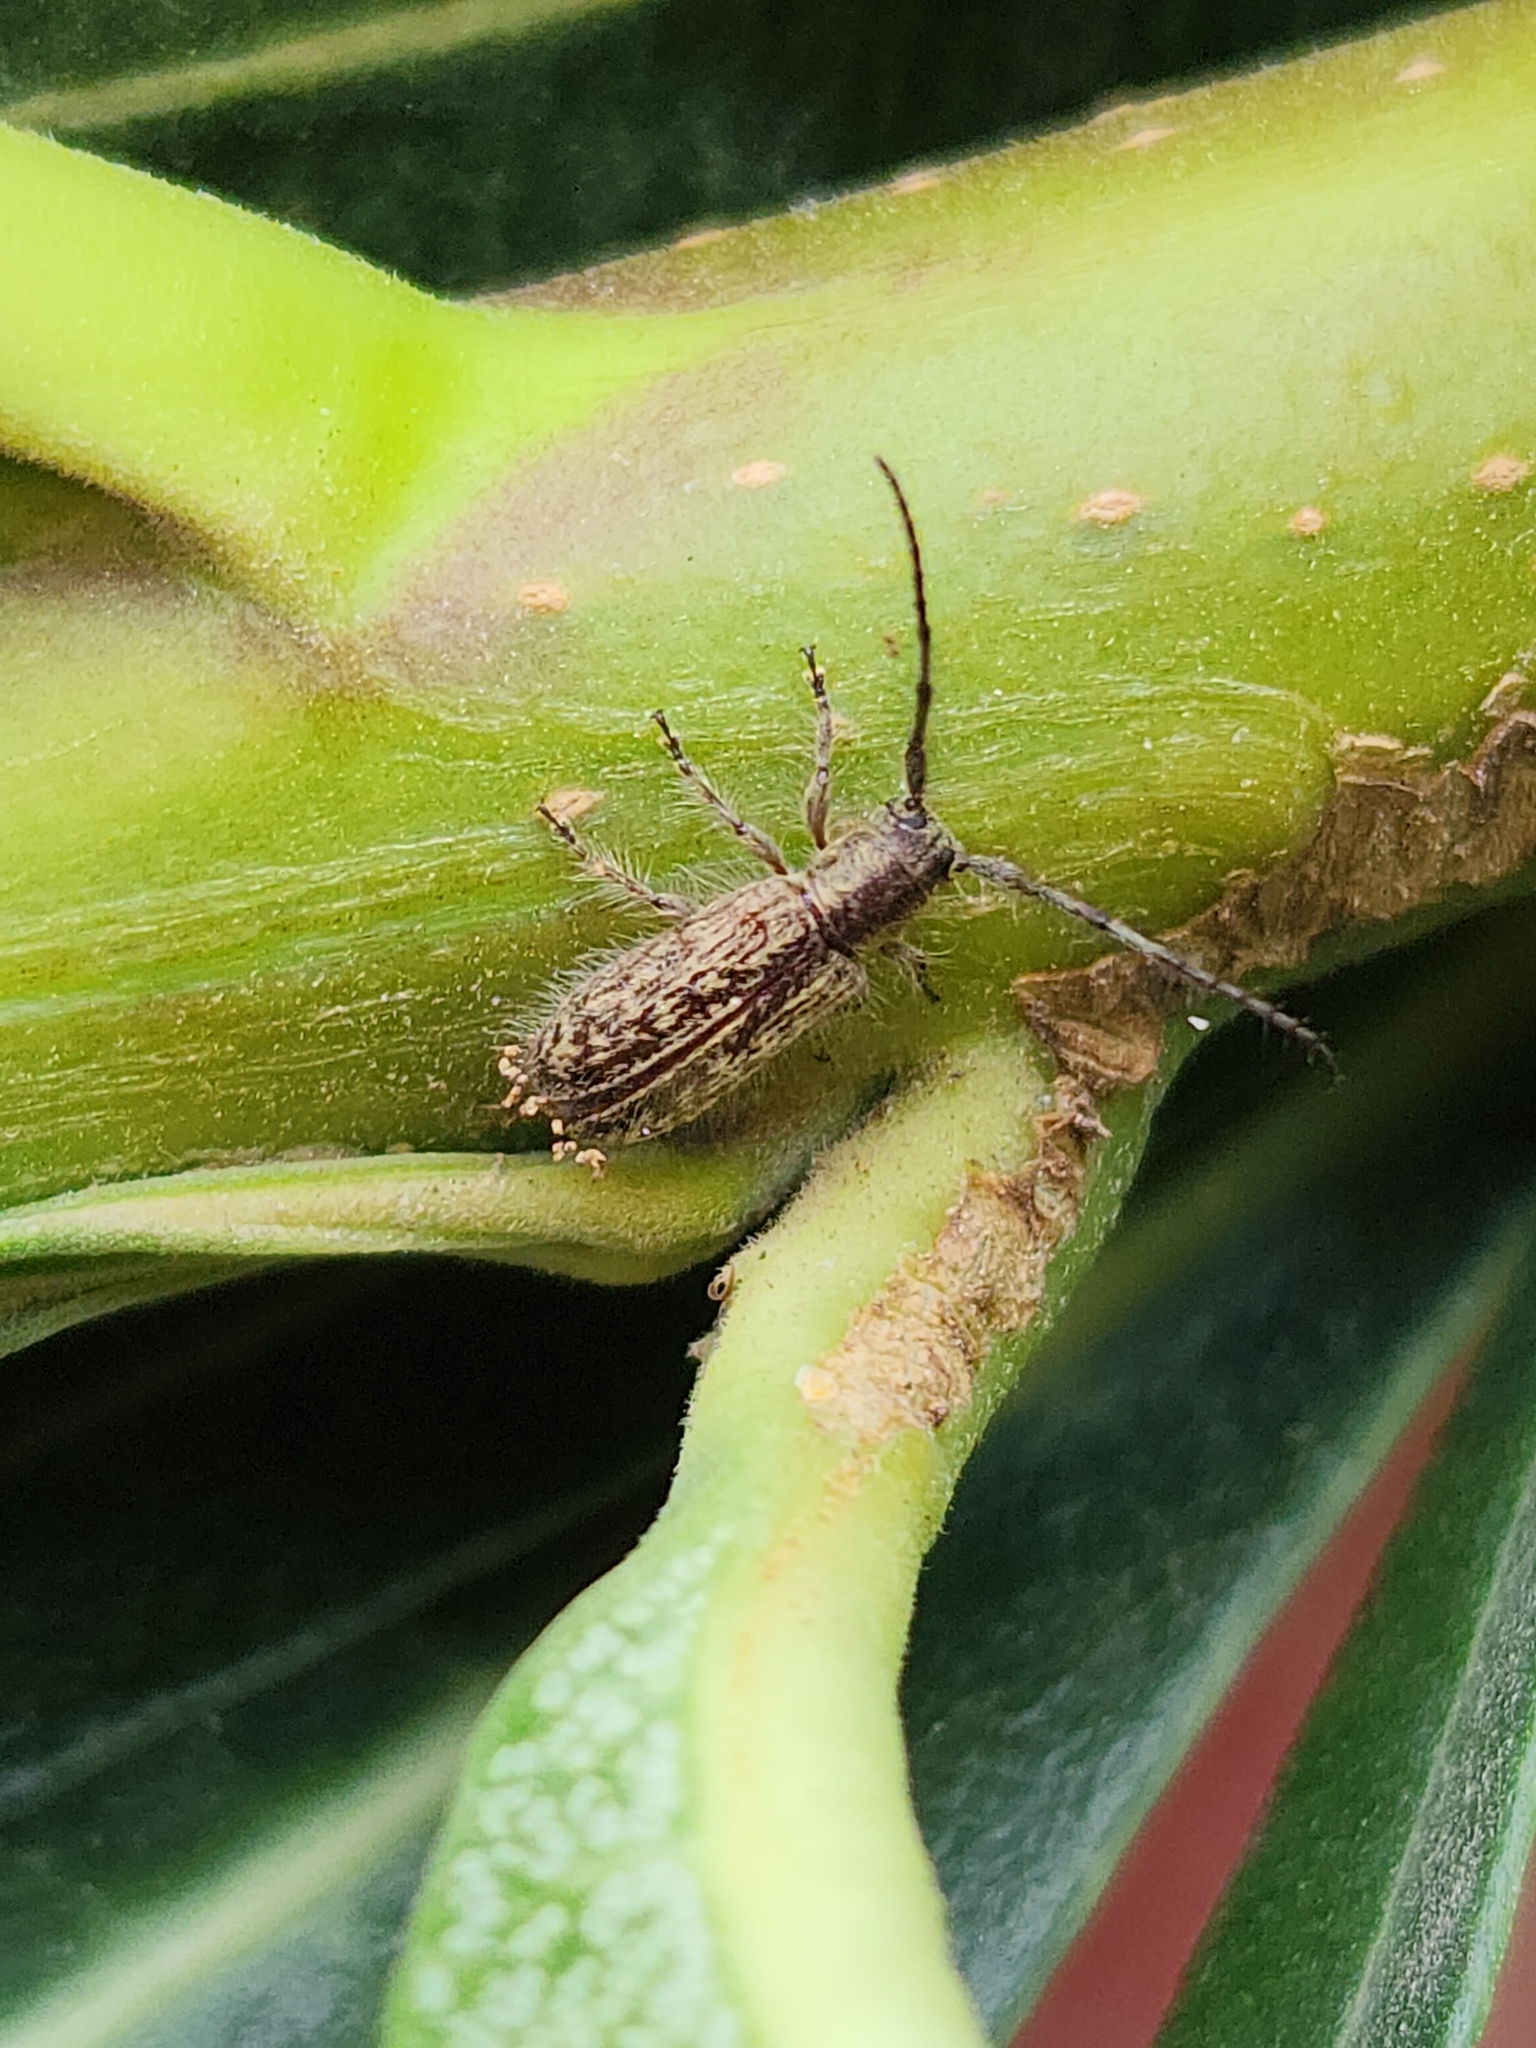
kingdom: Animalia
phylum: Arthropoda
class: Insecta
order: Coleoptera
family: Cerambycidae
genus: Eupogonius
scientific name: Eupogonius lineolatus
